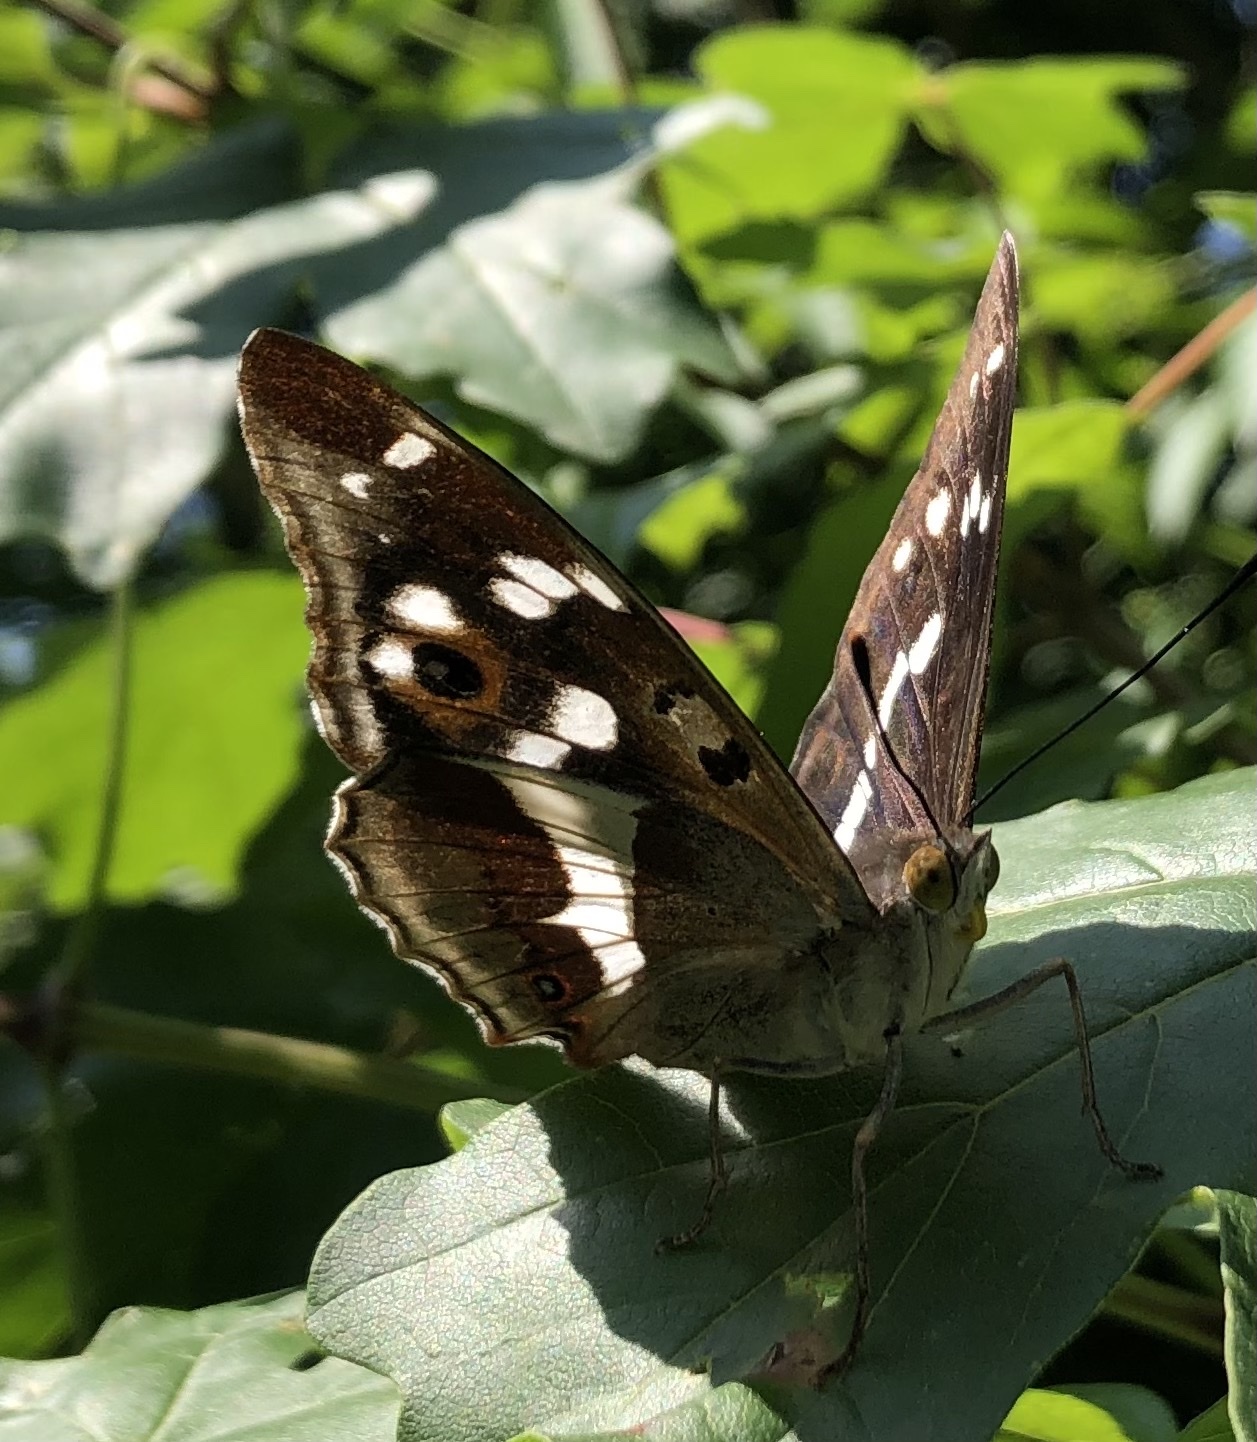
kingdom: Animalia
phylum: Arthropoda
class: Insecta
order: Lepidoptera
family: Nymphalidae
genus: Apatura
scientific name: Apatura iris
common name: Purple emperor
